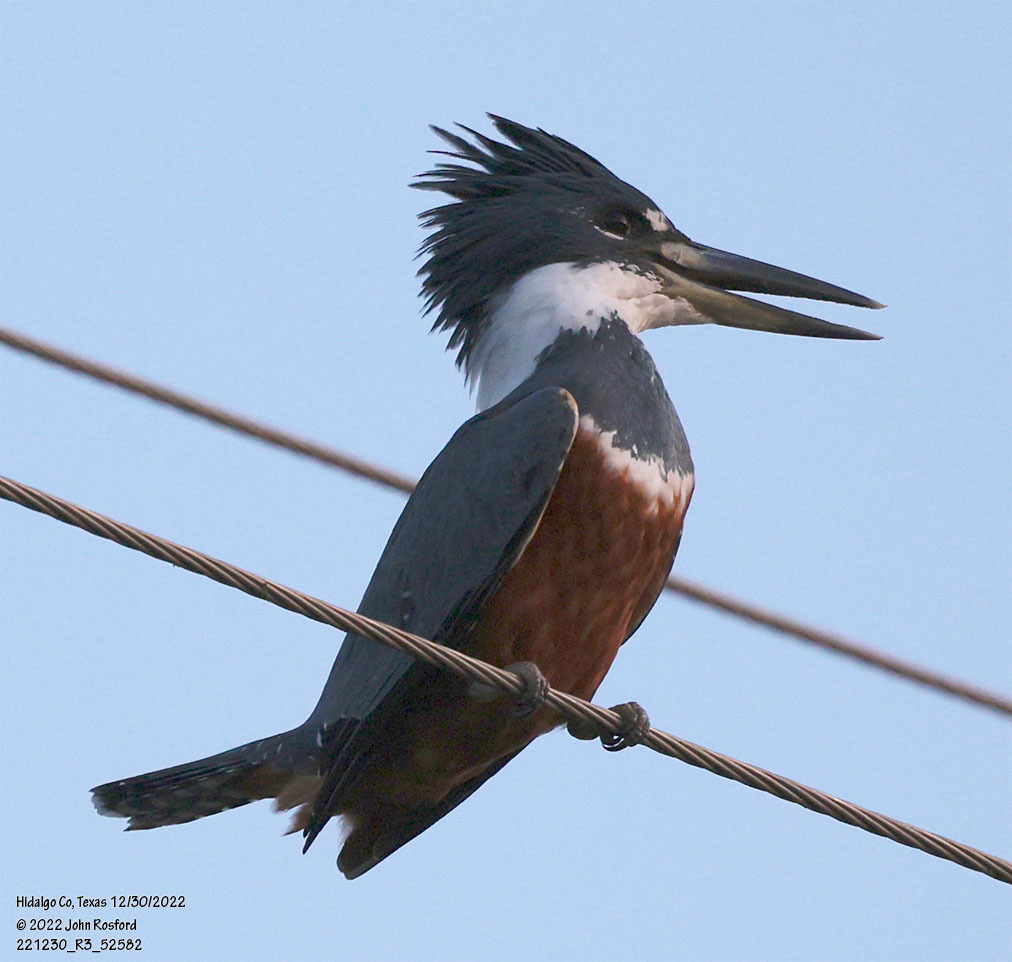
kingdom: Animalia
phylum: Chordata
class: Aves
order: Coraciiformes
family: Alcedinidae
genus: Megaceryle
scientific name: Megaceryle torquata
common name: Ringed kingfisher
